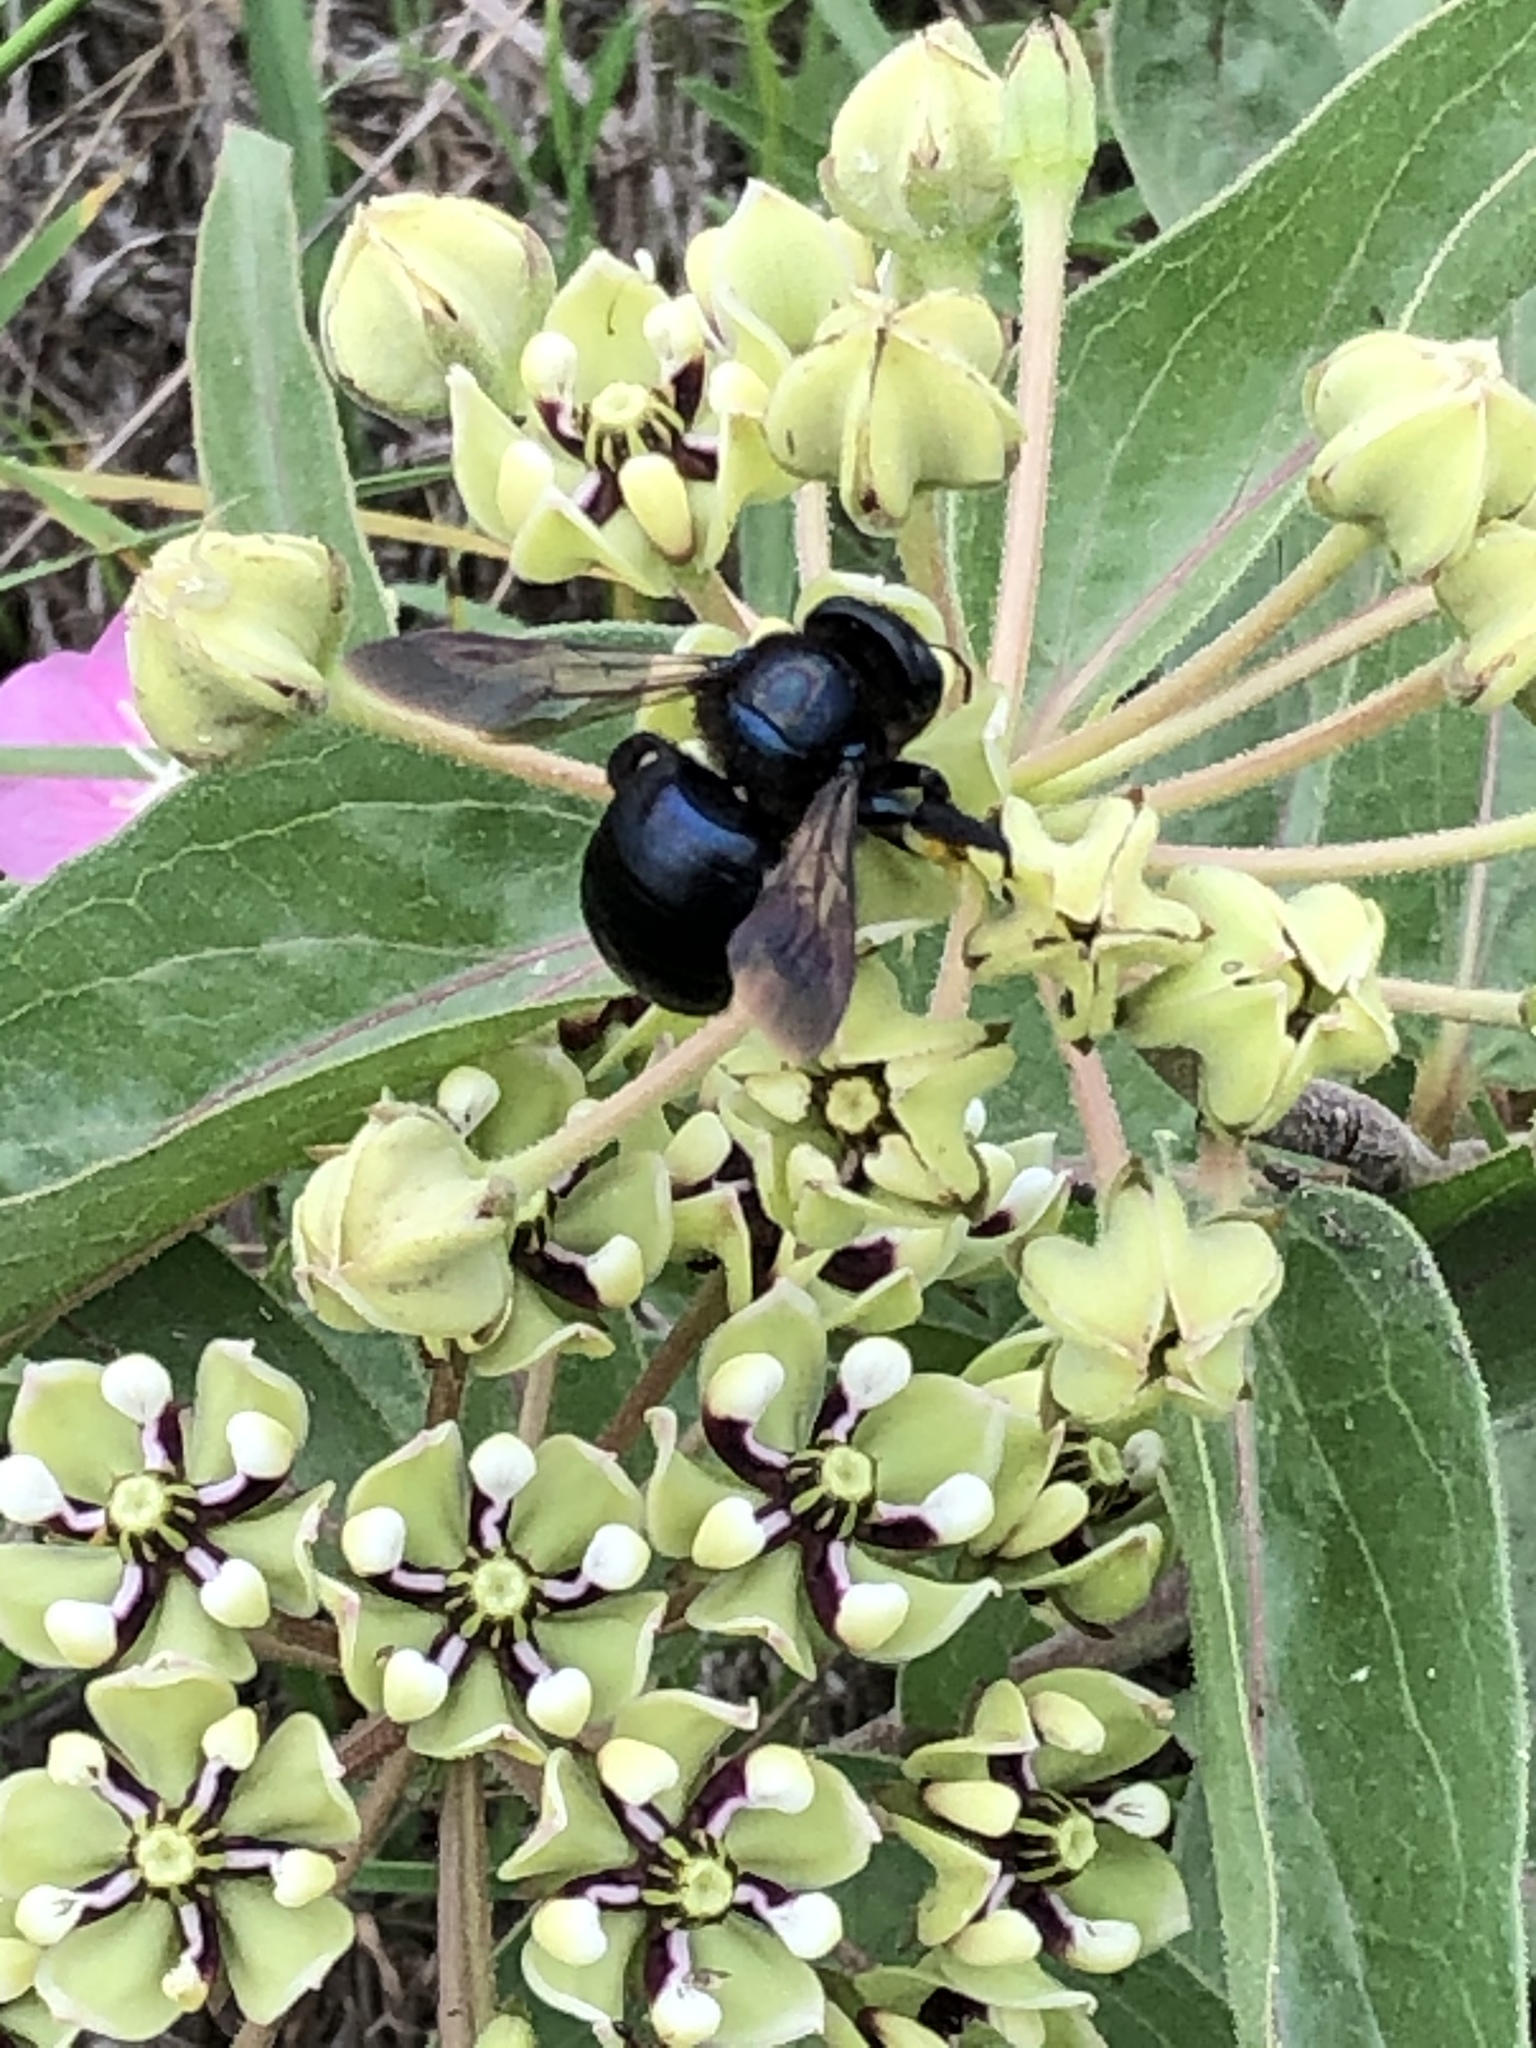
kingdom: Animalia
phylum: Arthropoda
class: Insecta
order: Hymenoptera
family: Apidae
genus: Xylocopa
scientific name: Xylocopa micans
